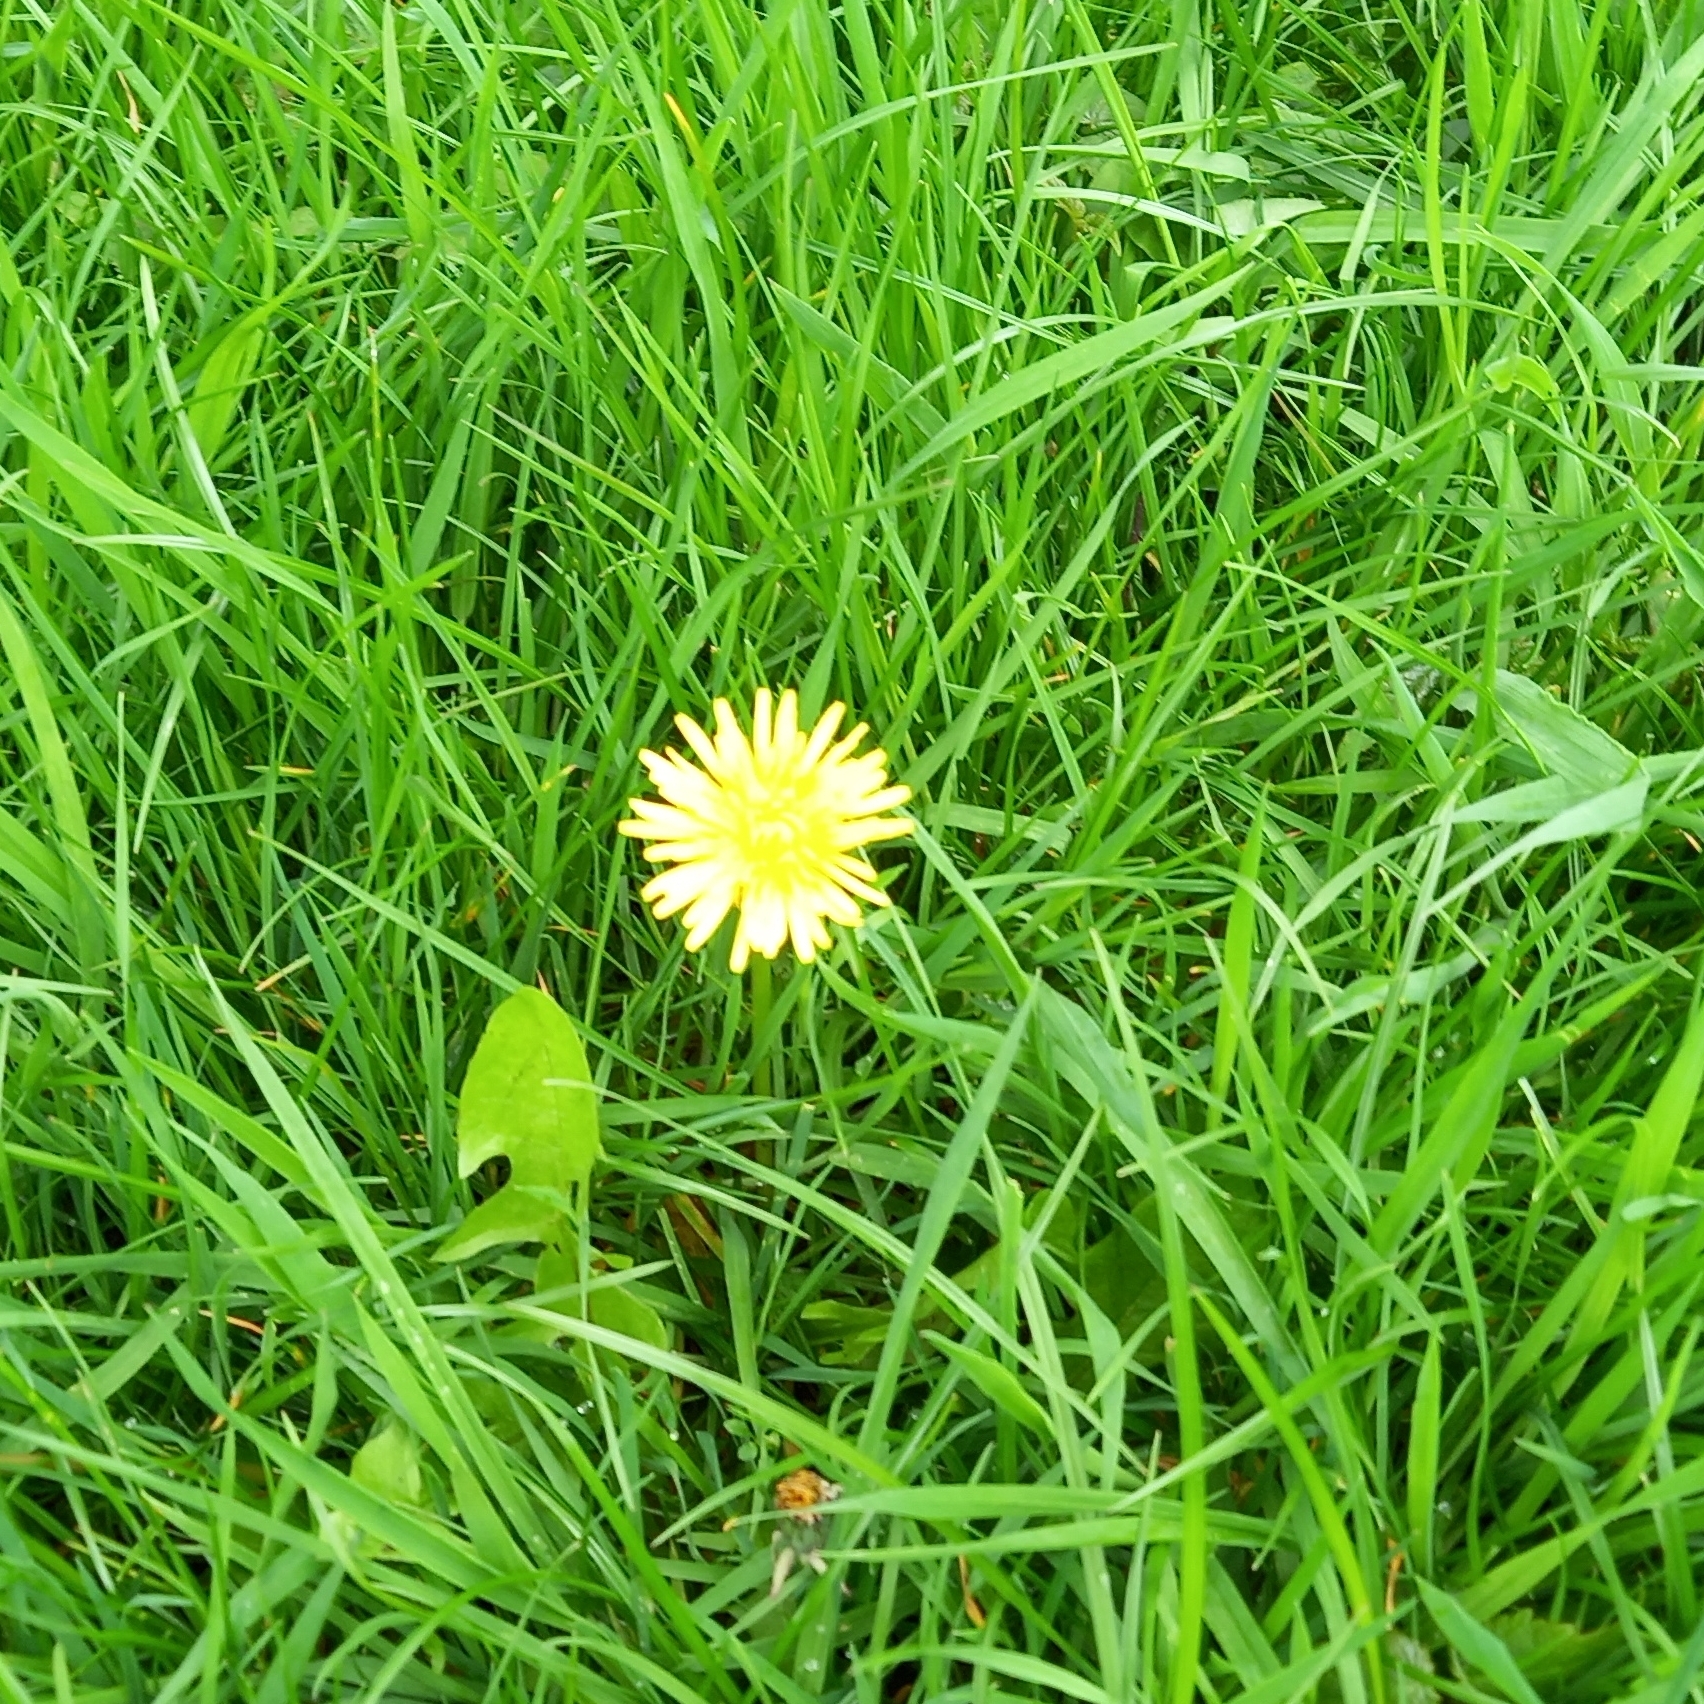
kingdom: Plantae
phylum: Tracheophyta
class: Magnoliopsida
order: Asterales
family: Asteraceae
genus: Taraxacum
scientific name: Taraxacum officinale
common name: Common dandelion
